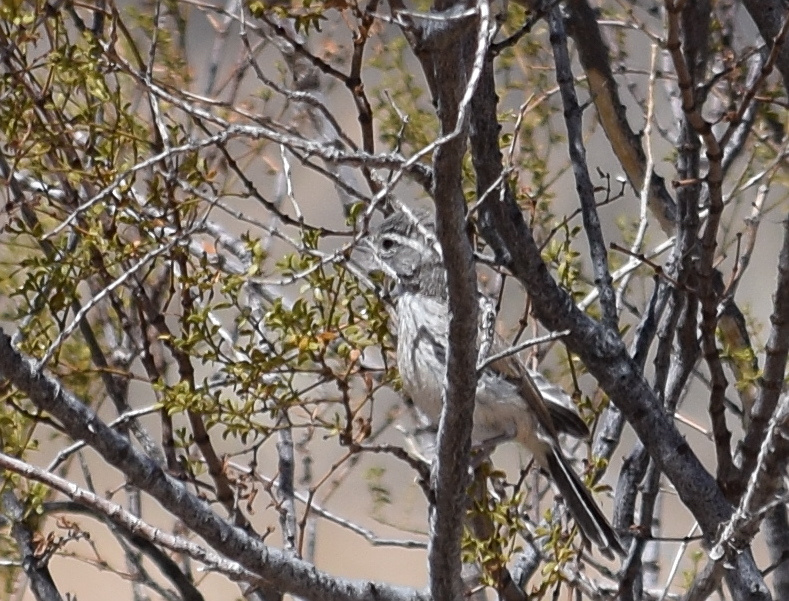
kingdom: Animalia
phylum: Chordata
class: Aves
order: Passeriformes
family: Passerellidae
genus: Amphispiza
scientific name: Amphispiza bilineata
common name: Black-throated sparrow
